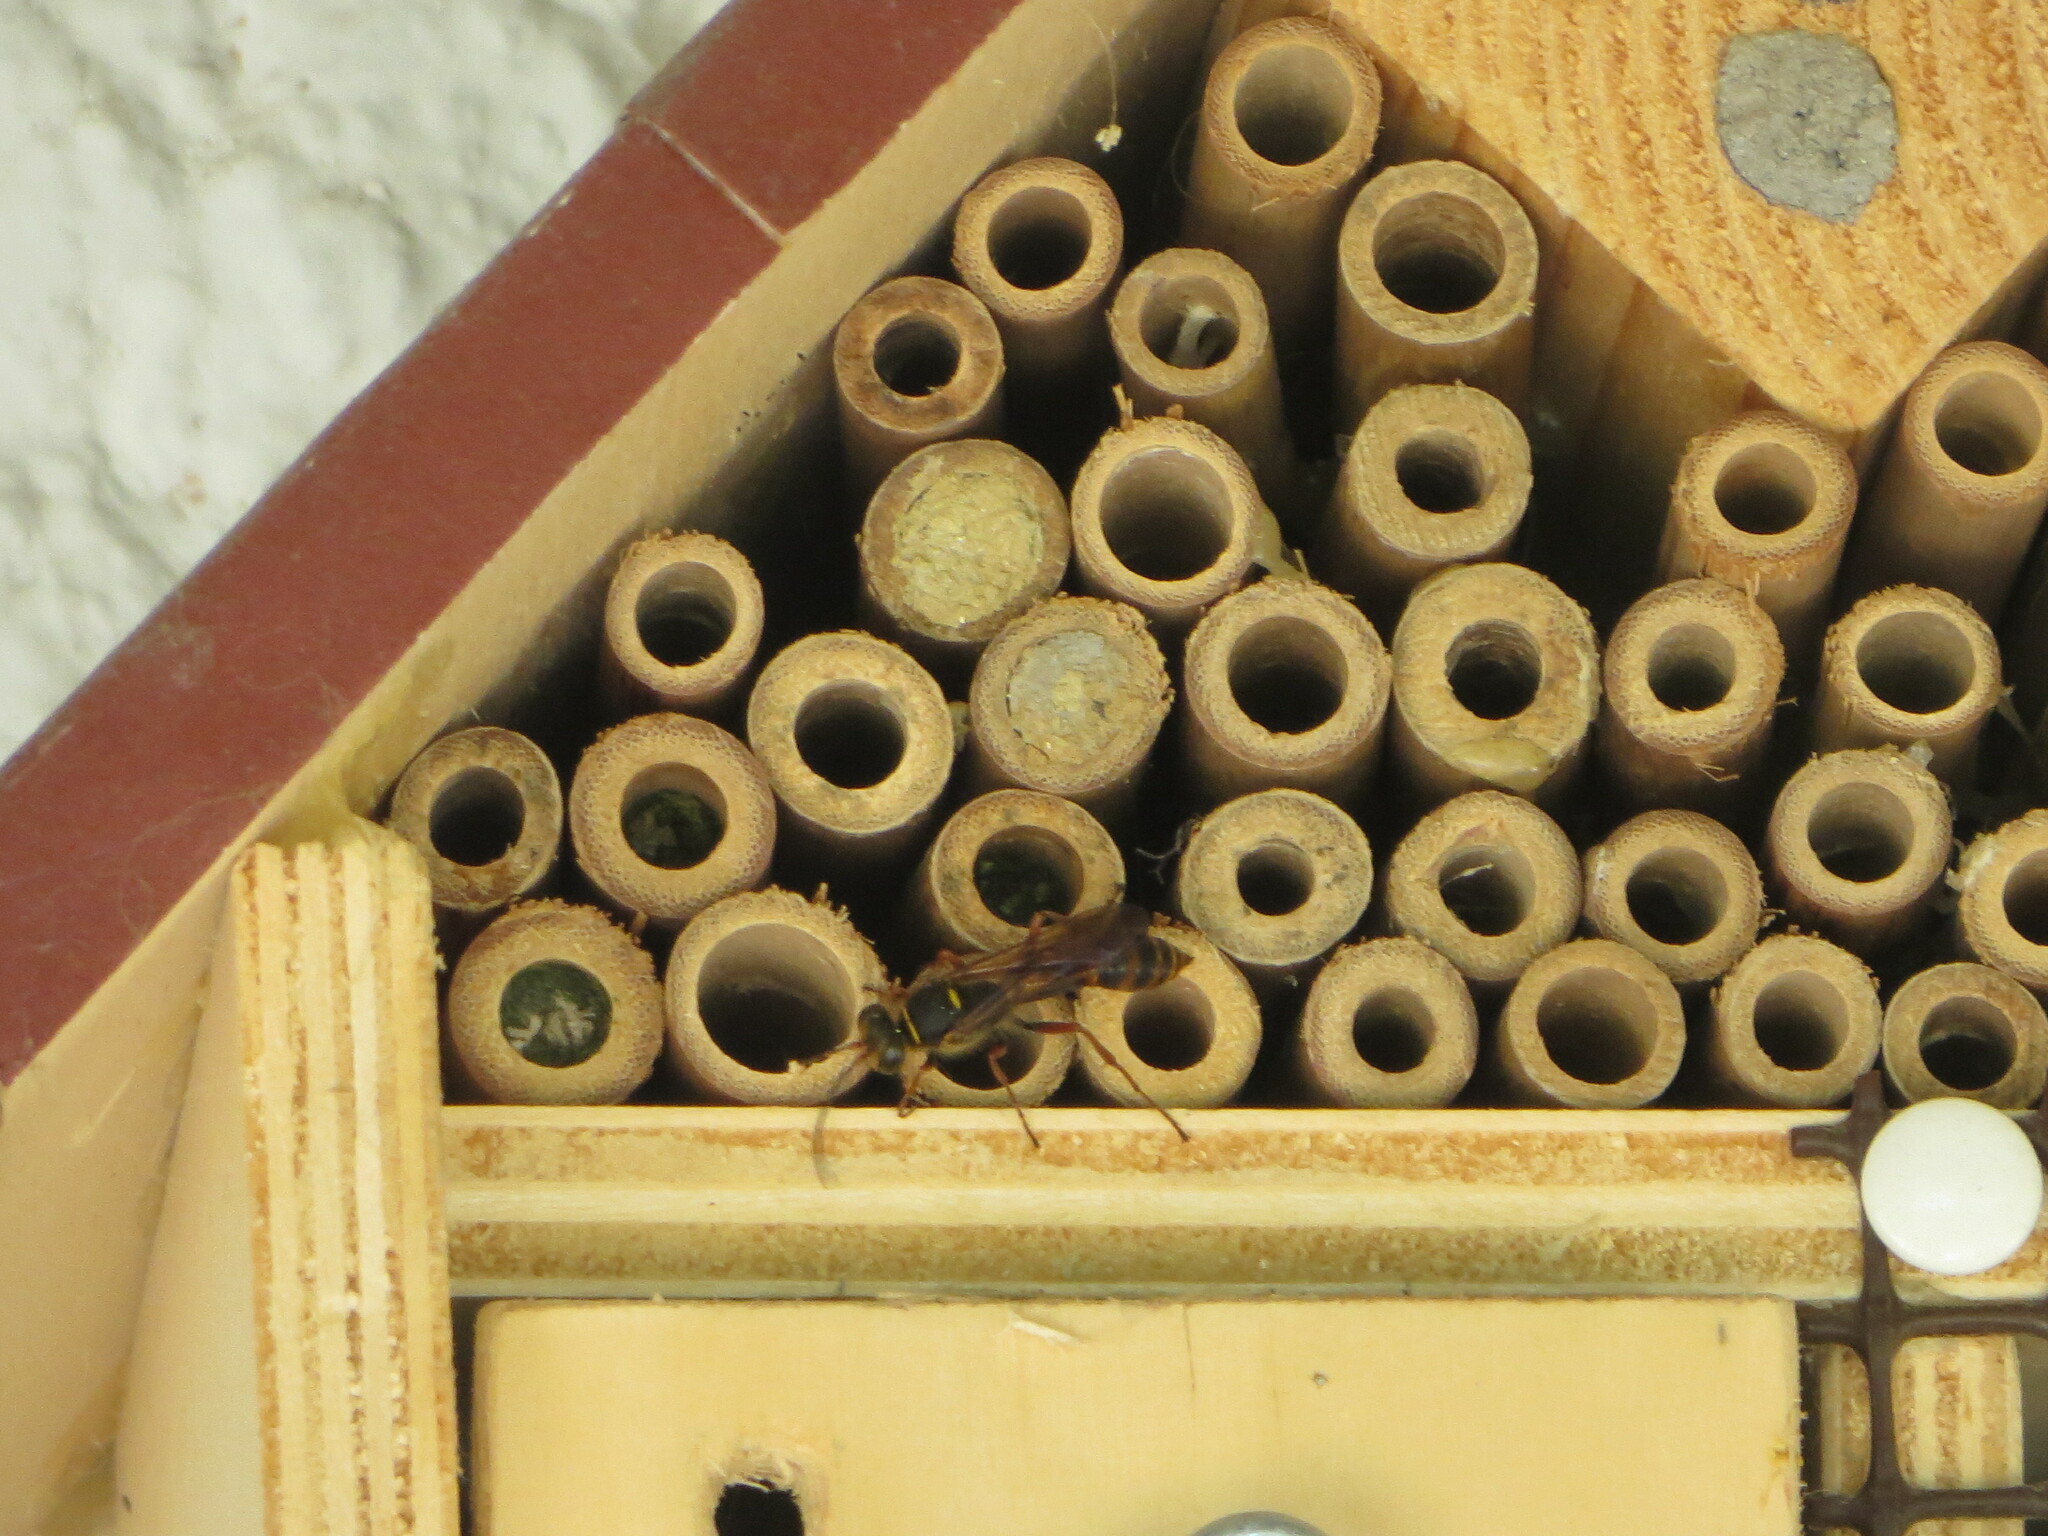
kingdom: Animalia
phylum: Arthropoda
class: Insecta
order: Hymenoptera
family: Sphecidae
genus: Sceliphron
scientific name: Sceliphron curvatum
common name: Pèlopèe
